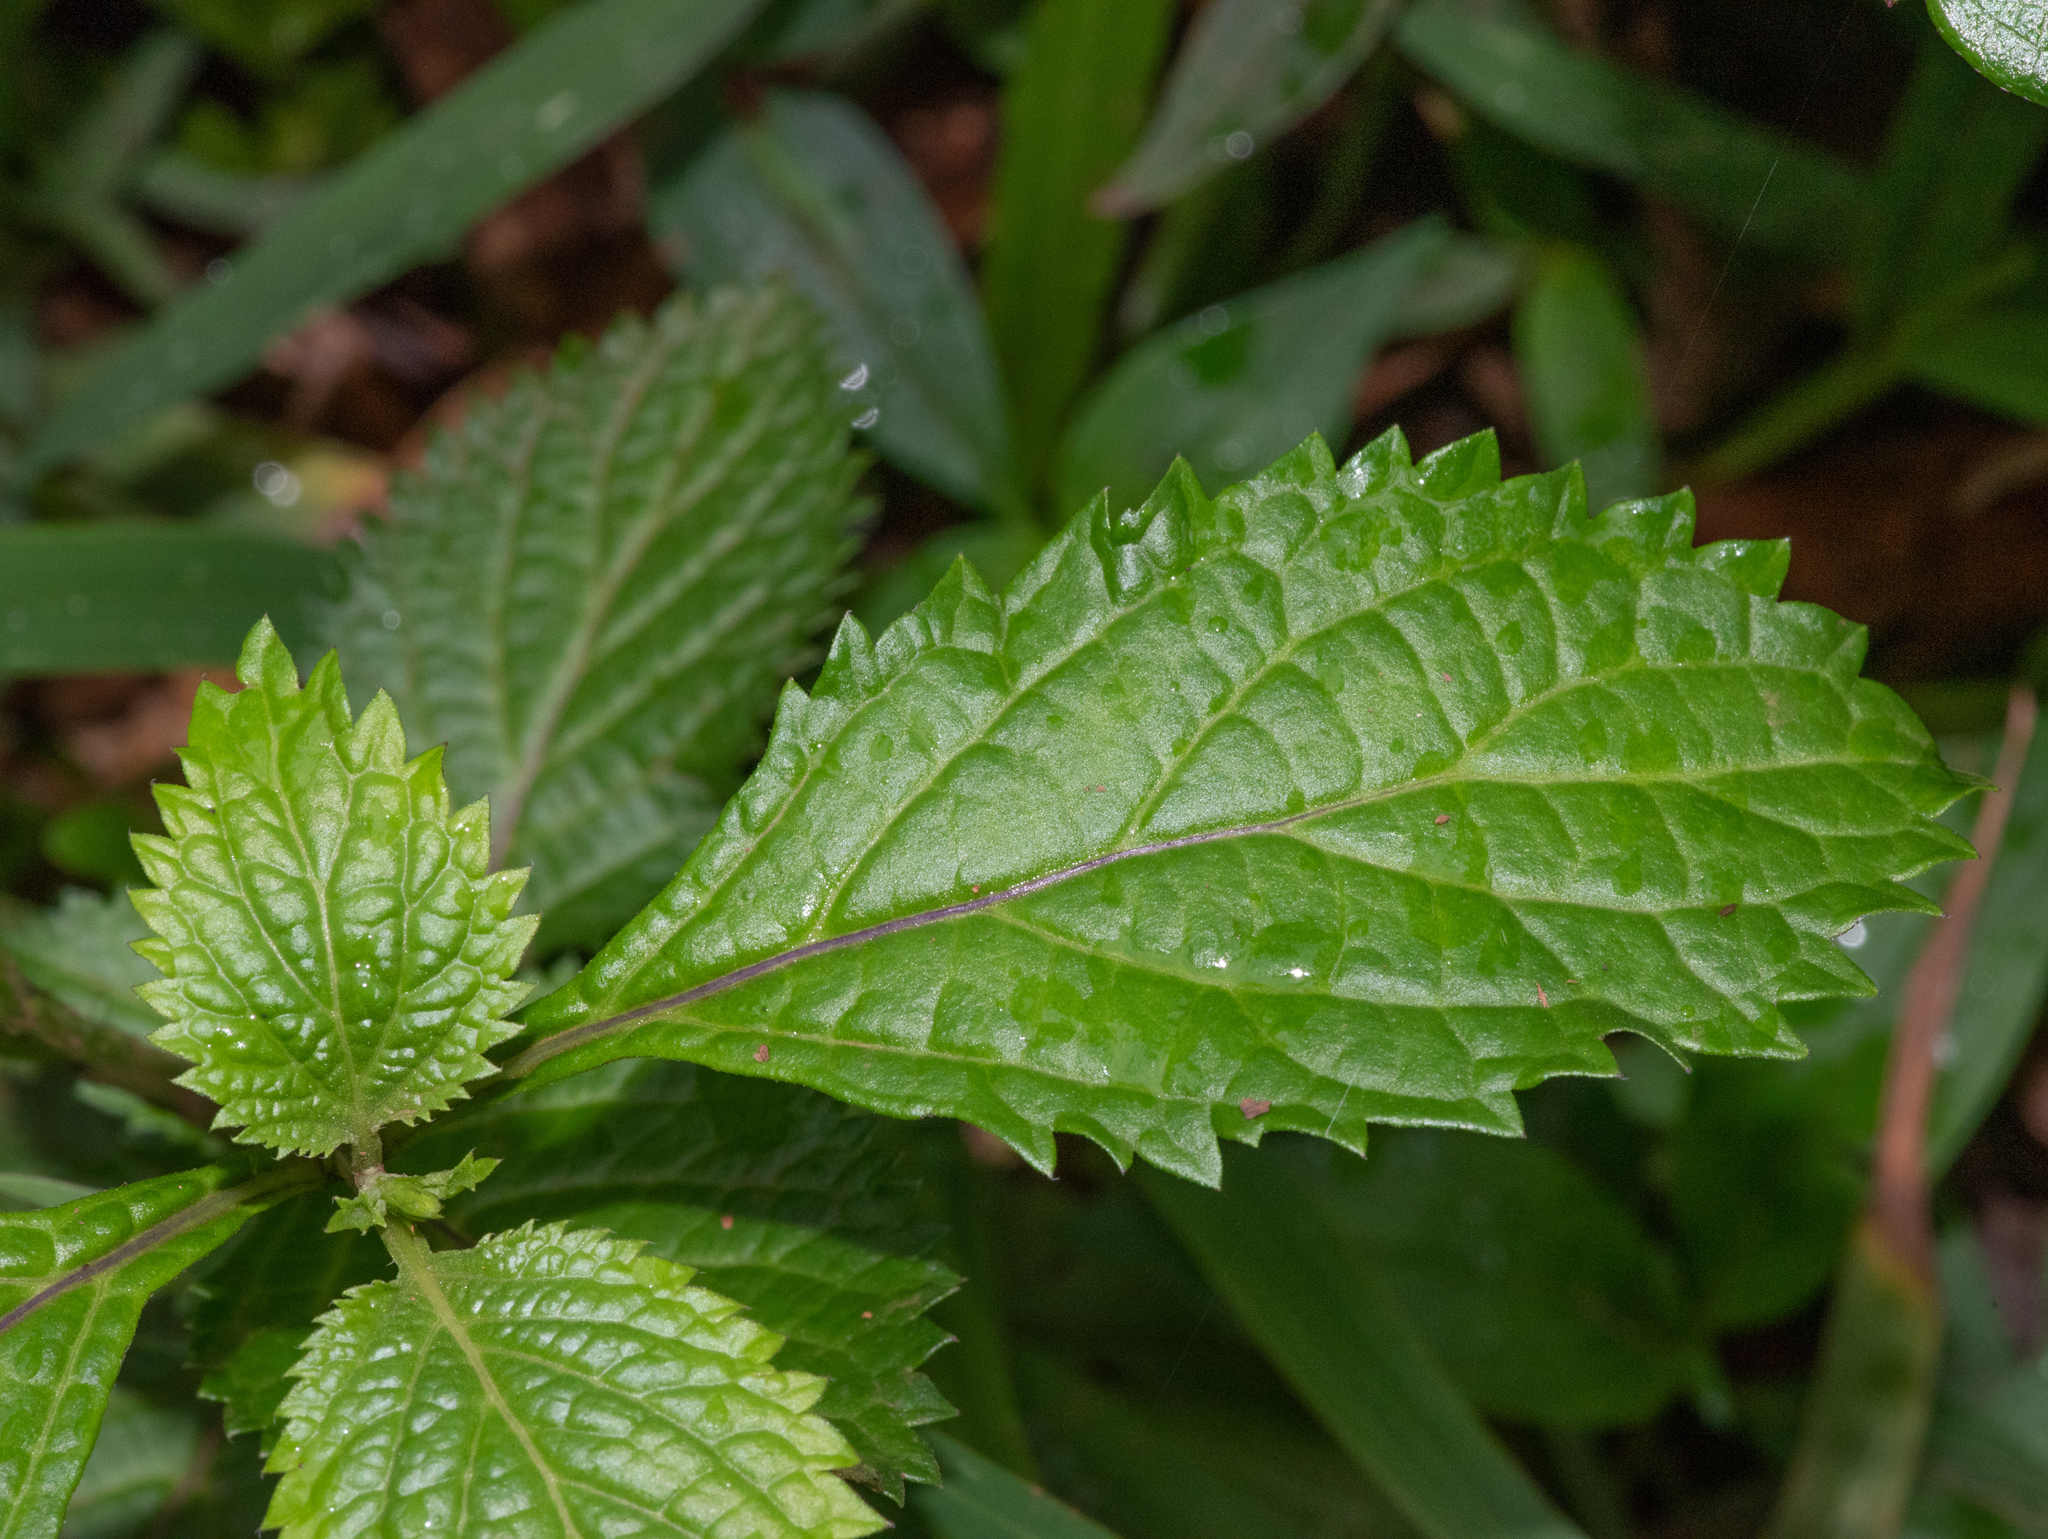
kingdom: Plantae
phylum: Tracheophyta
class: Magnoliopsida
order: Lamiales
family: Verbenaceae
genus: Stachytarpheta
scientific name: Stachytarpheta cayennensis
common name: Cayenne porterweed
